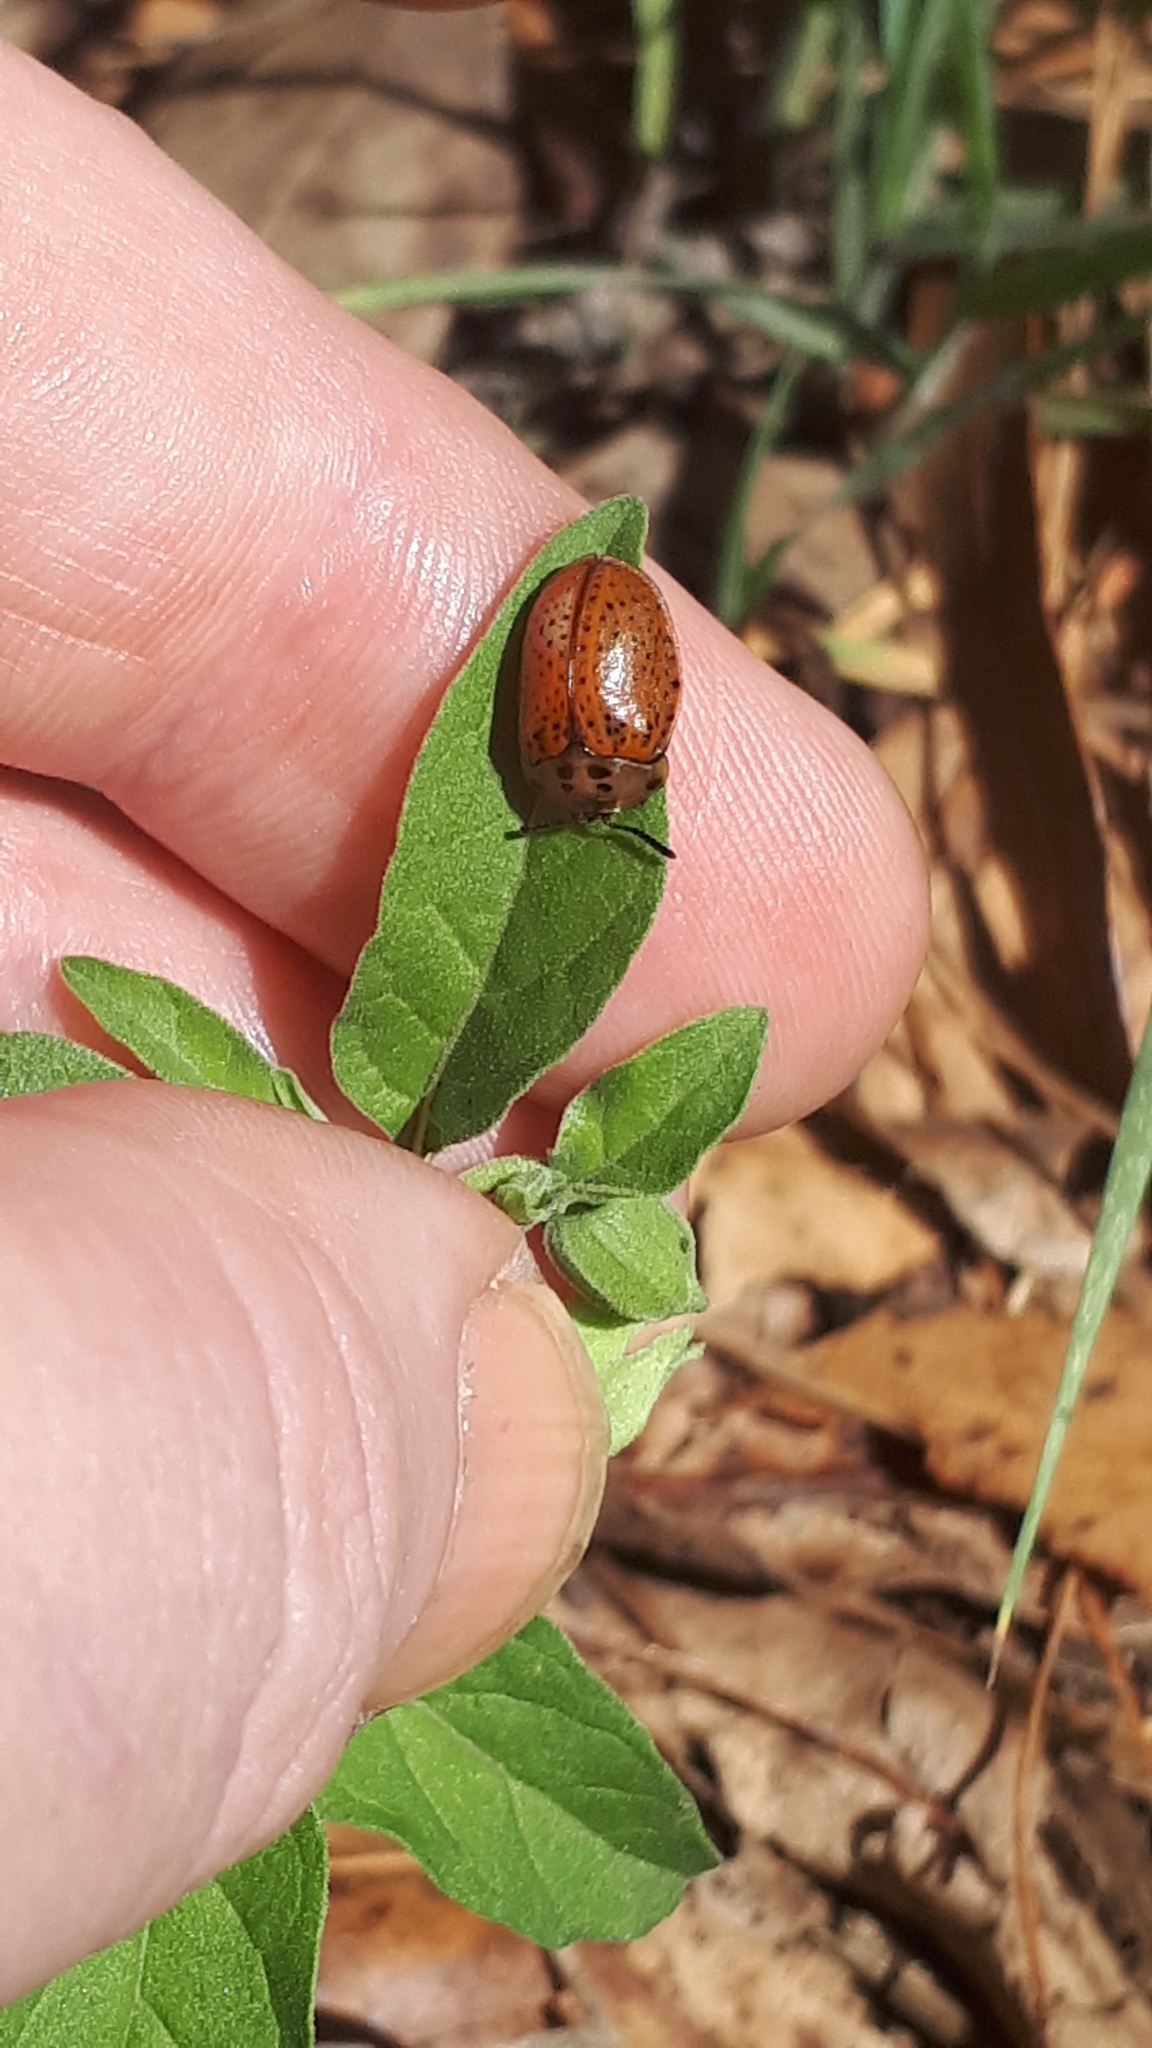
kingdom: Animalia
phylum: Arthropoda
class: Insecta
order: Coleoptera
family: Chrysomelidae
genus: Chelymorpha
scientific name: Chelymorpha varians
